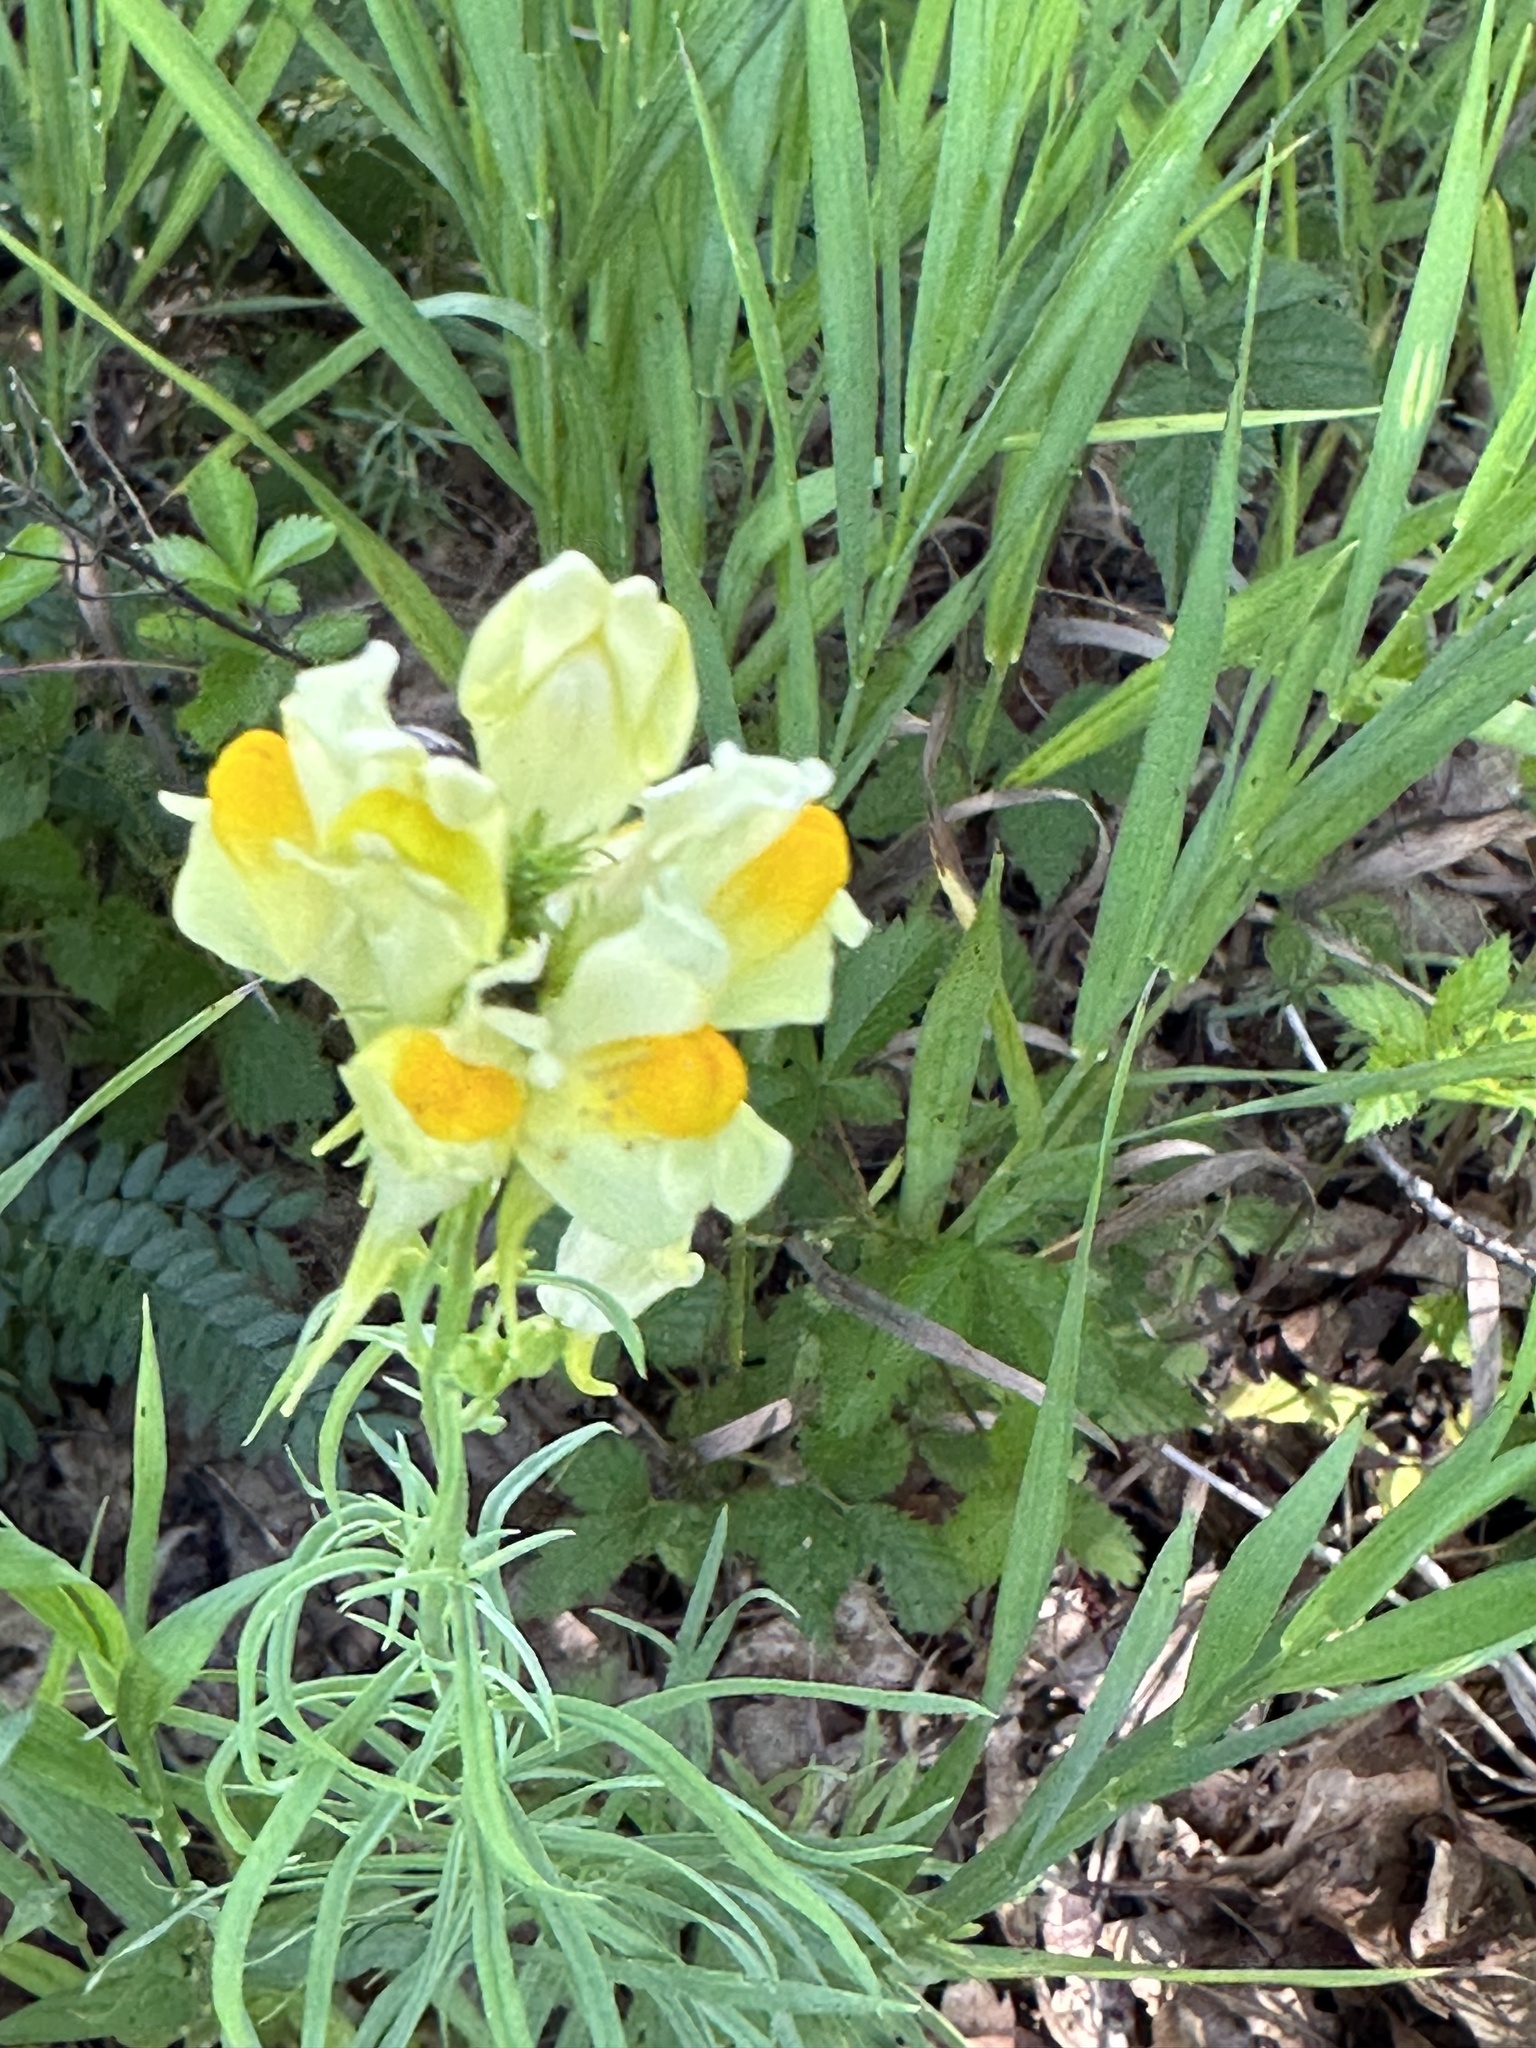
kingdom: Plantae
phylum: Tracheophyta
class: Magnoliopsida
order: Lamiales
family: Plantaginaceae
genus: Linaria
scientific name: Linaria vulgaris
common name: Butter and eggs
